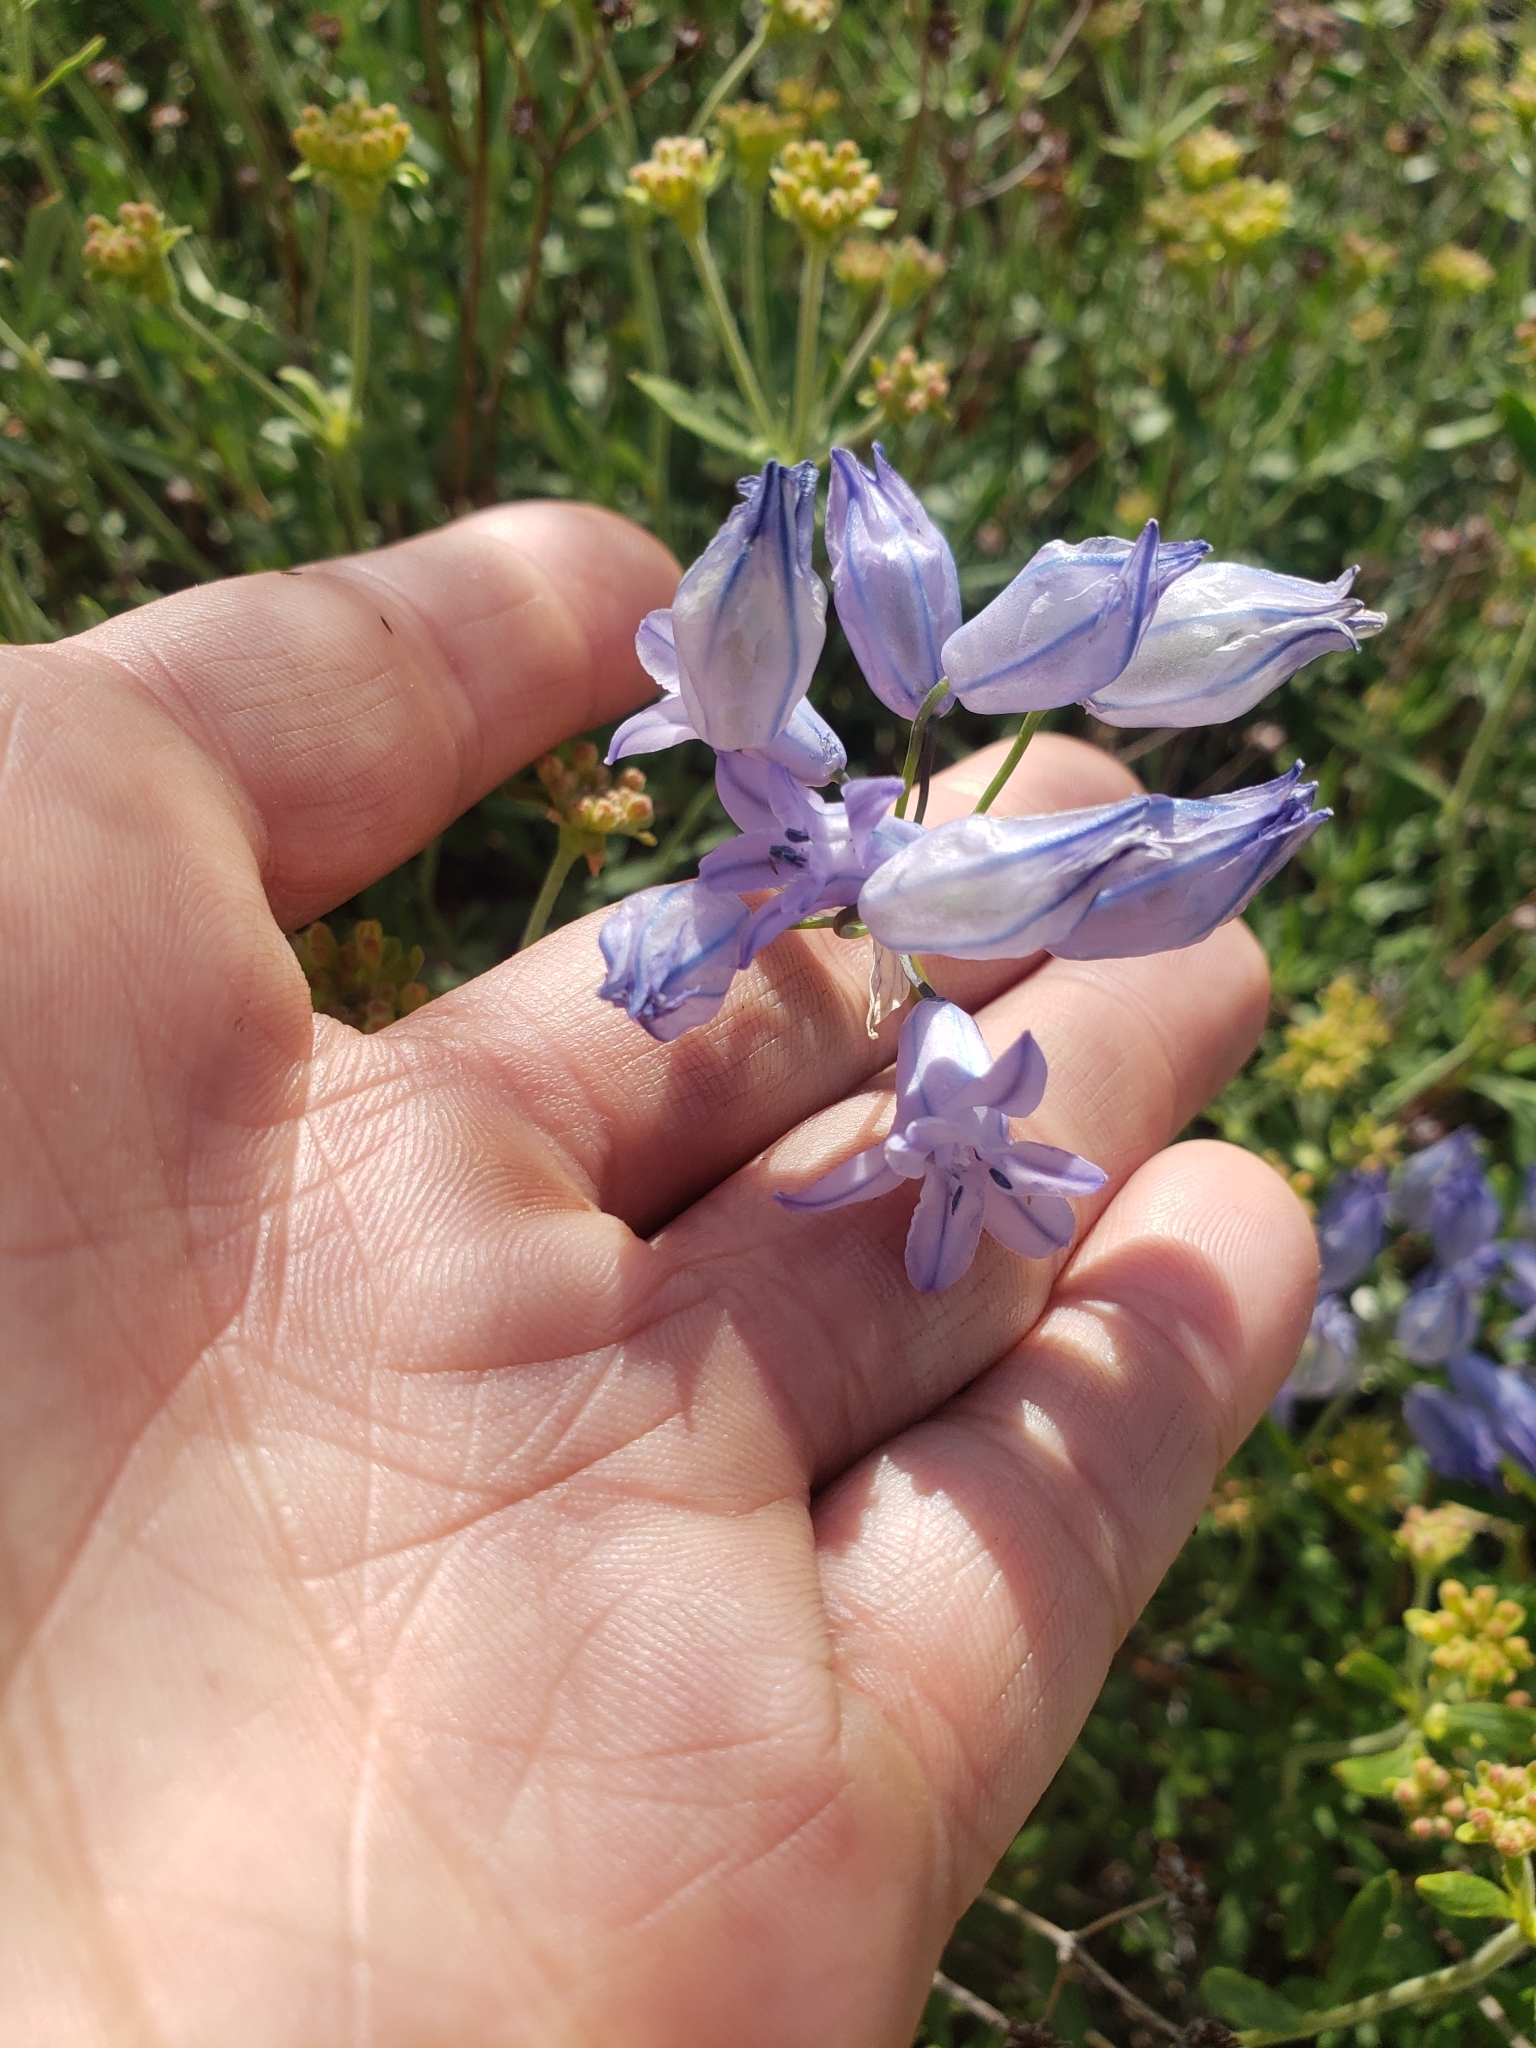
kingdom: Plantae
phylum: Tracheophyta
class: Liliopsida
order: Asparagales
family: Asparagaceae
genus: Triteleia
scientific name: Triteleia grandiflora
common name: Wild hyacinth
